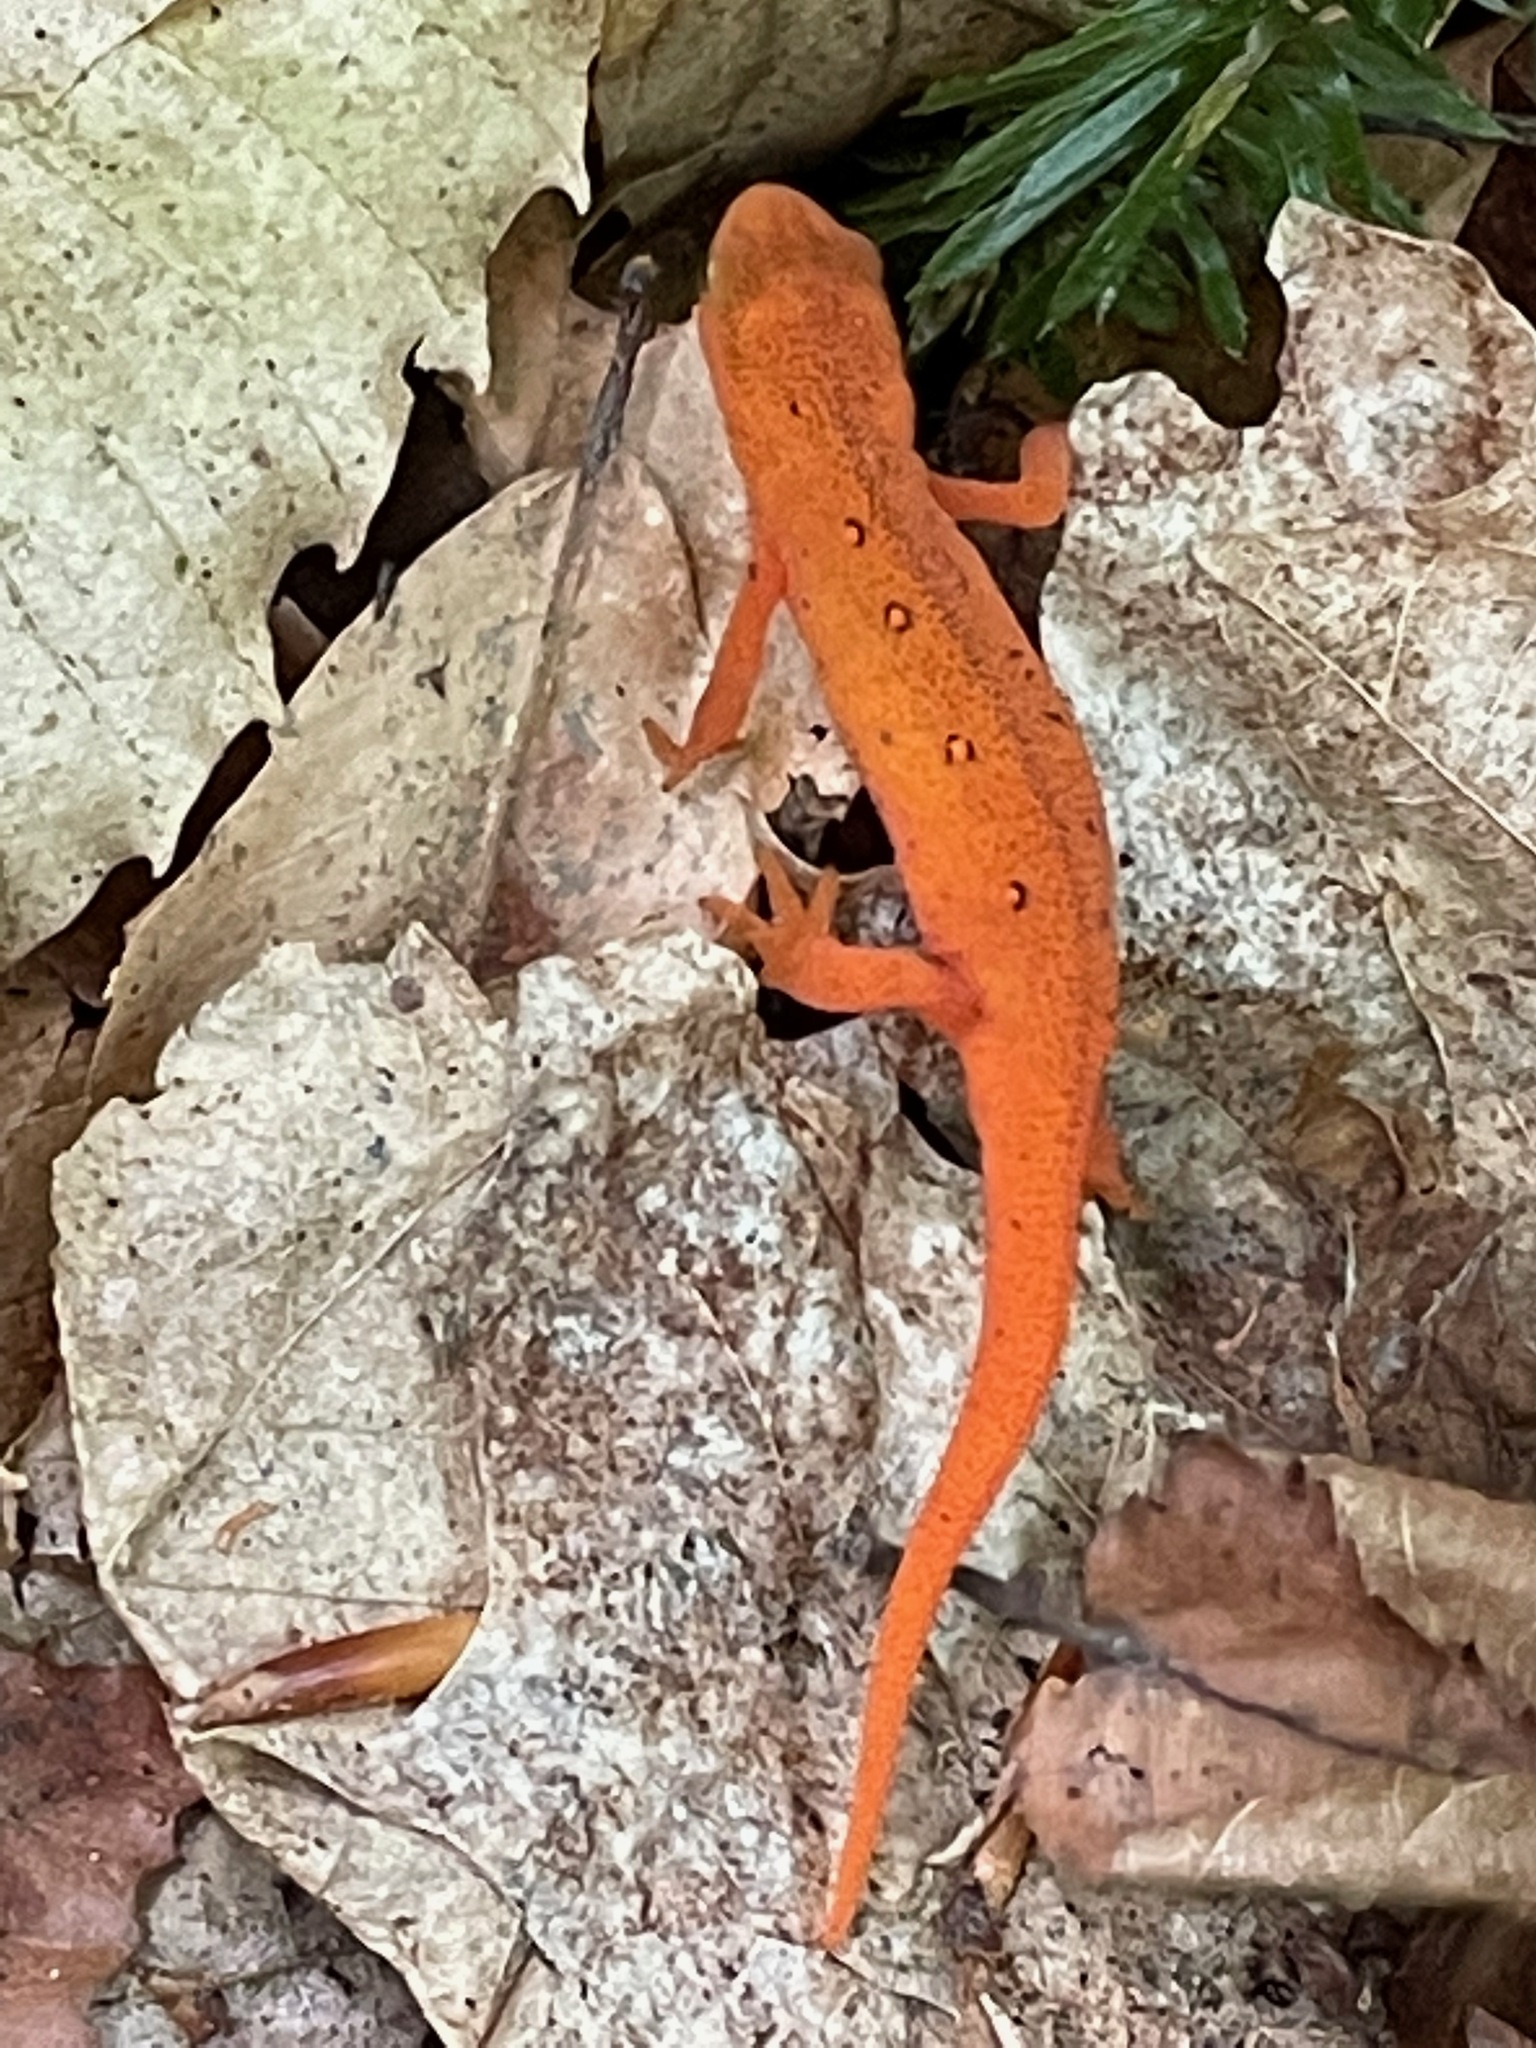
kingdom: Animalia
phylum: Chordata
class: Amphibia
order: Caudata
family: Salamandridae
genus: Notophthalmus
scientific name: Notophthalmus viridescens
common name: Eastern newt
